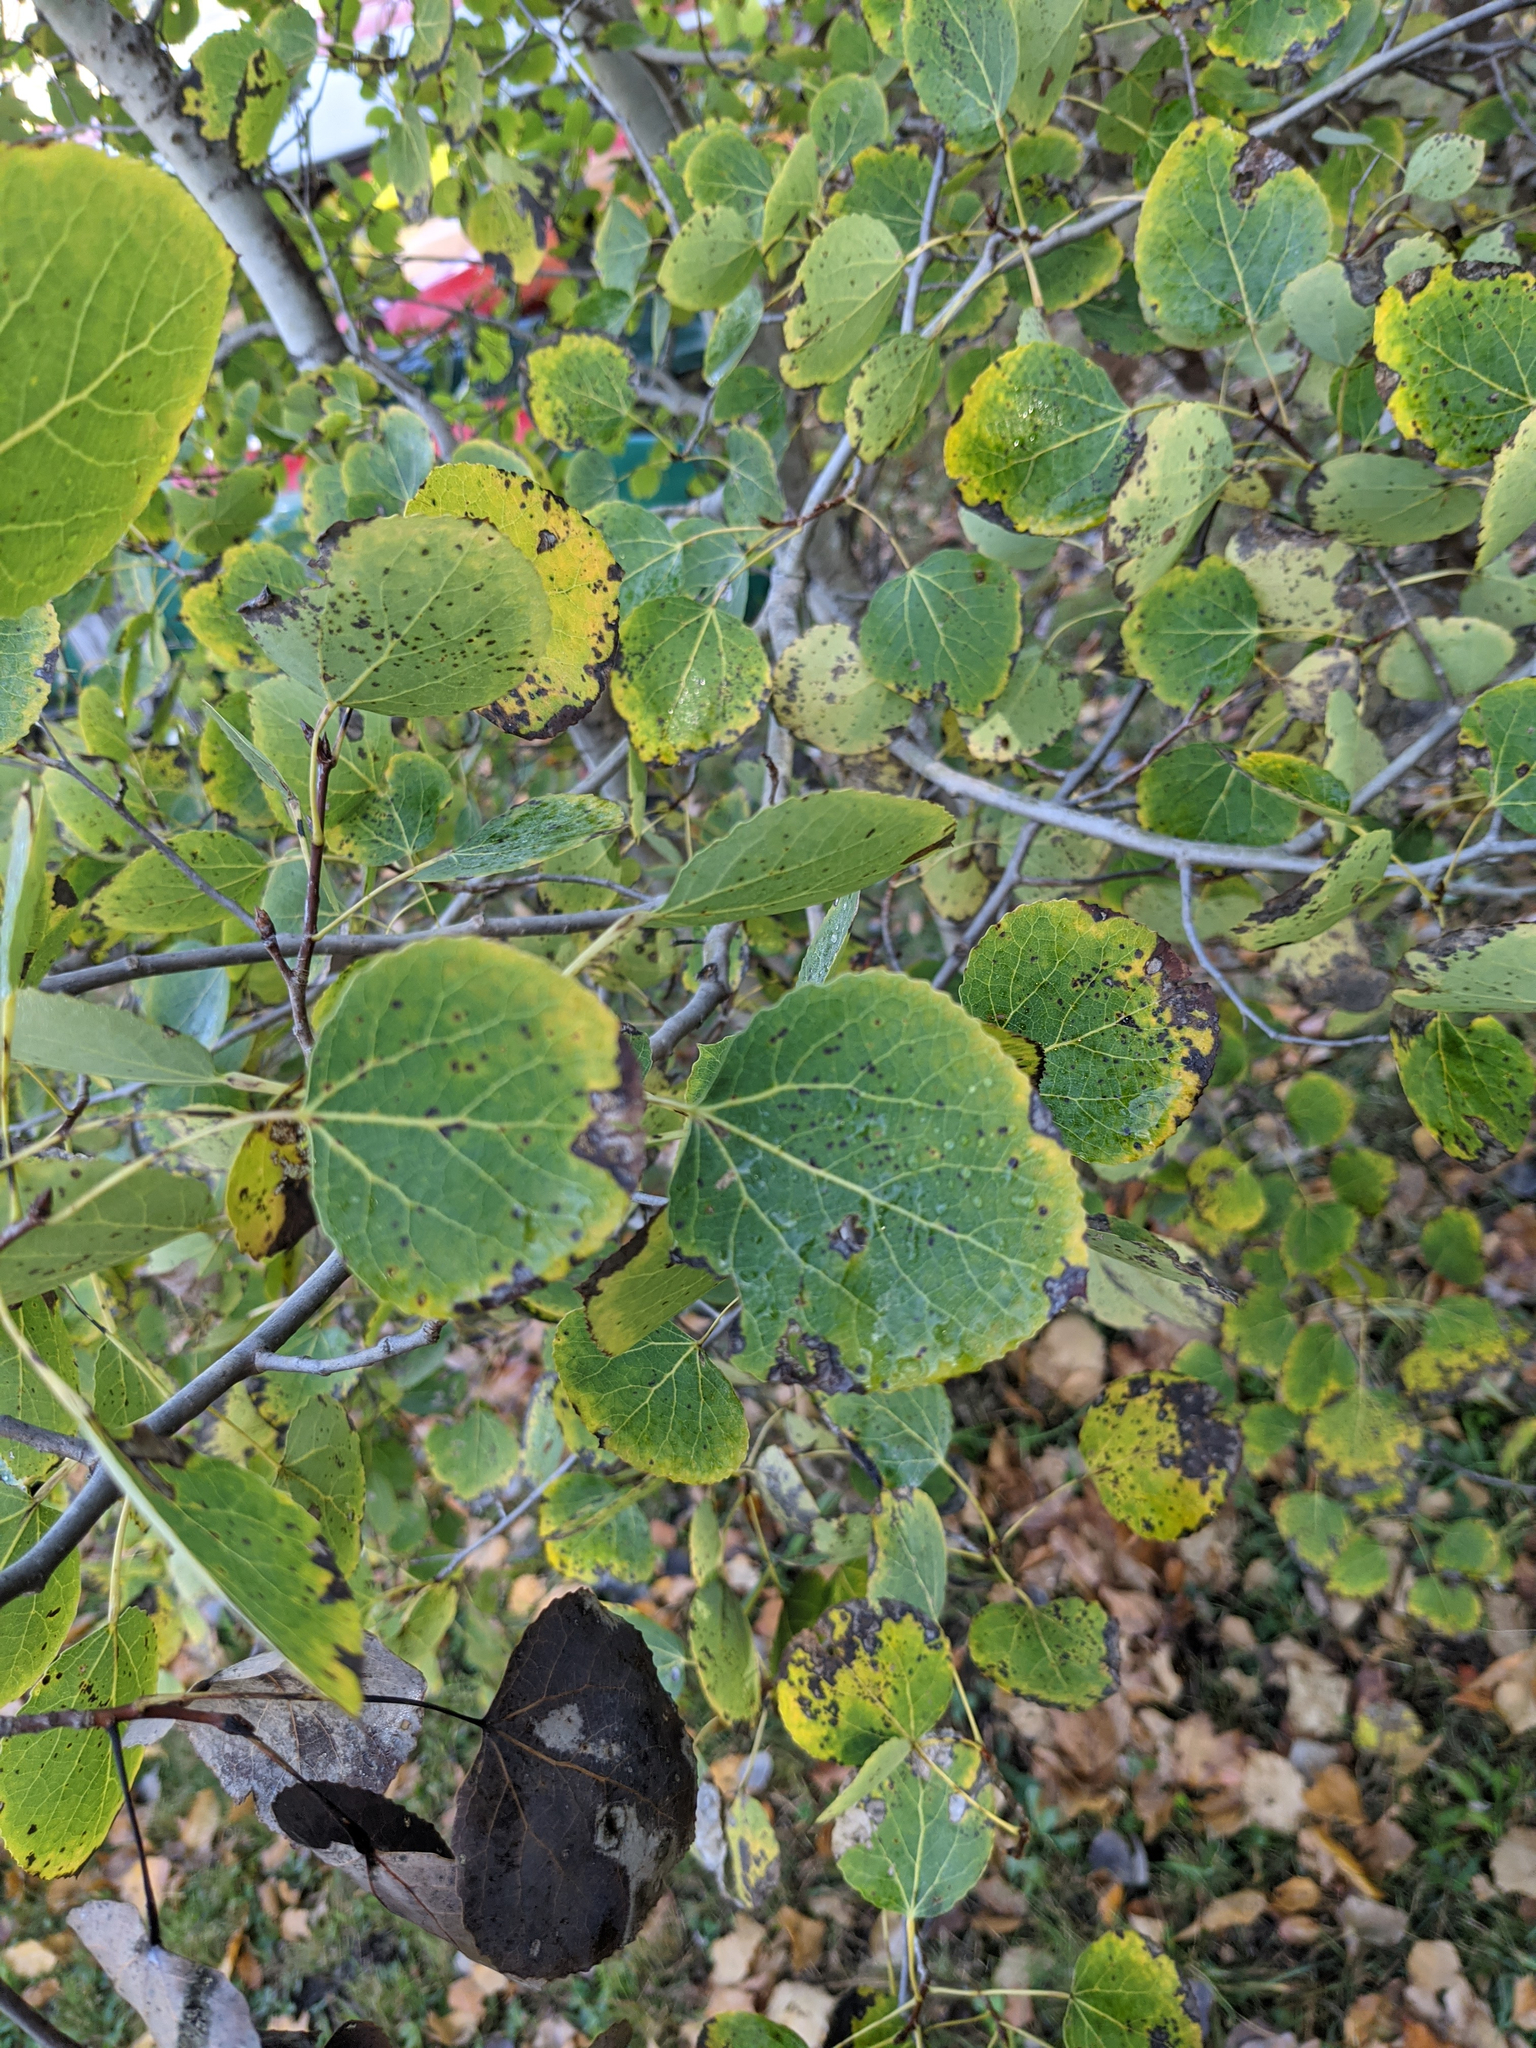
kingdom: Plantae
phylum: Tracheophyta
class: Magnoliopsida
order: Malpighiales
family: Salicaceae
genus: Populus
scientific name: Populus tremuloides
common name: Quaking aspen
